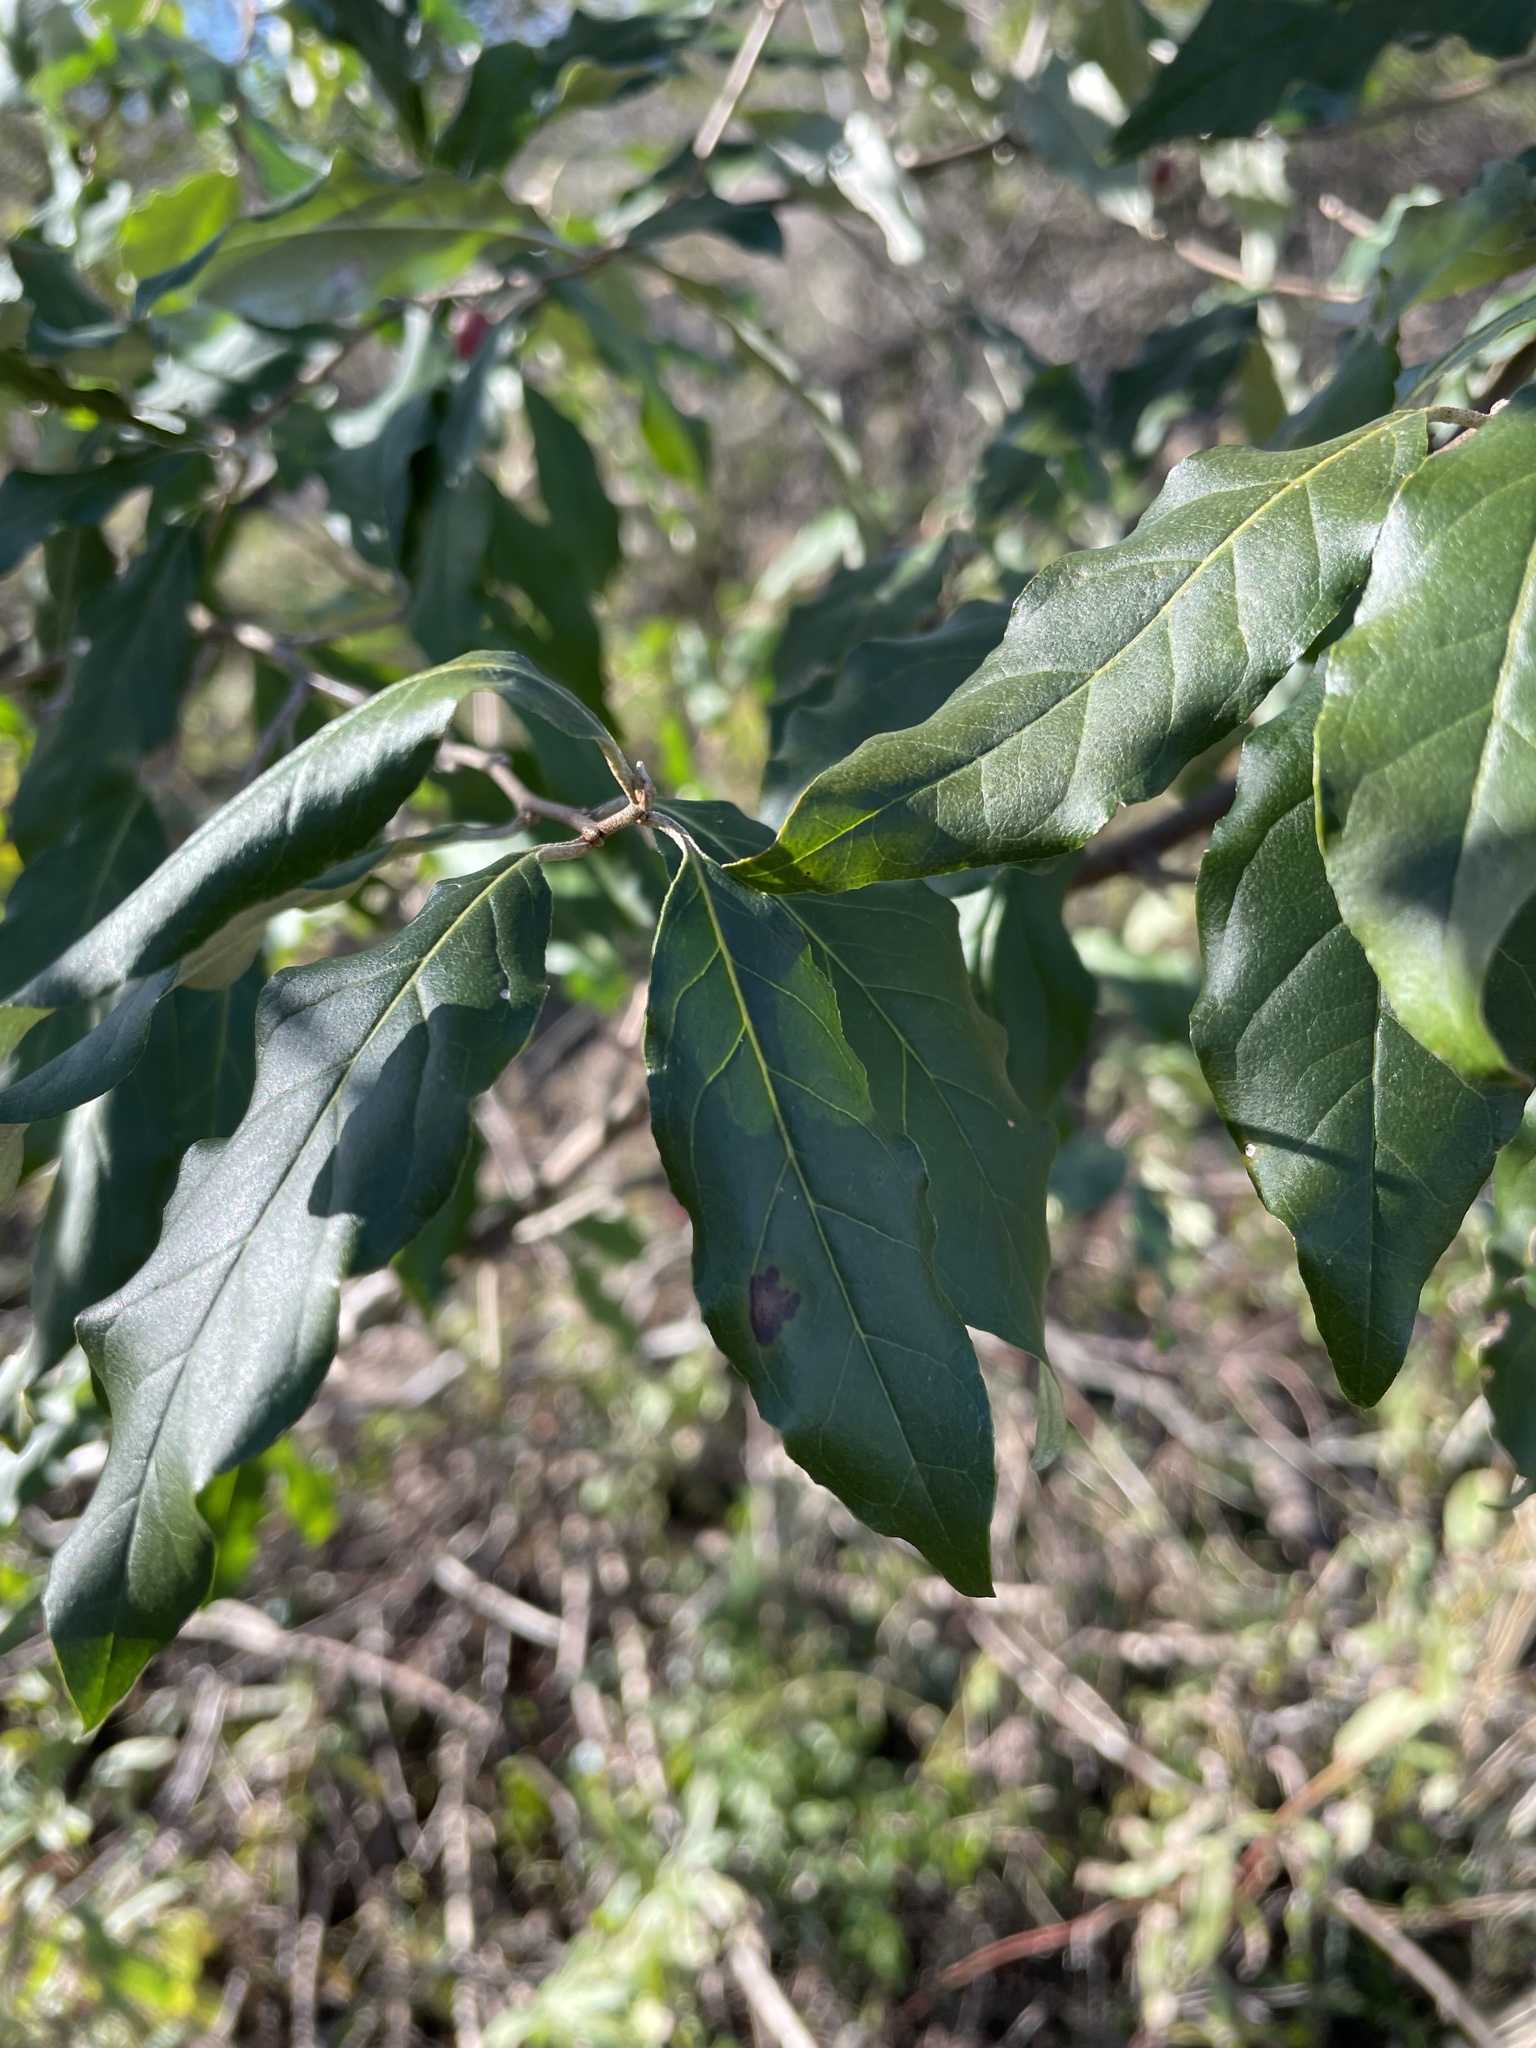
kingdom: Plantae
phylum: Tracheophyta
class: Magnoliopsida
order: Rosales
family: Elaeagnaceae
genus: Elaeagnus
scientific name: Elaeagnus umbellata
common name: Autumn olive
